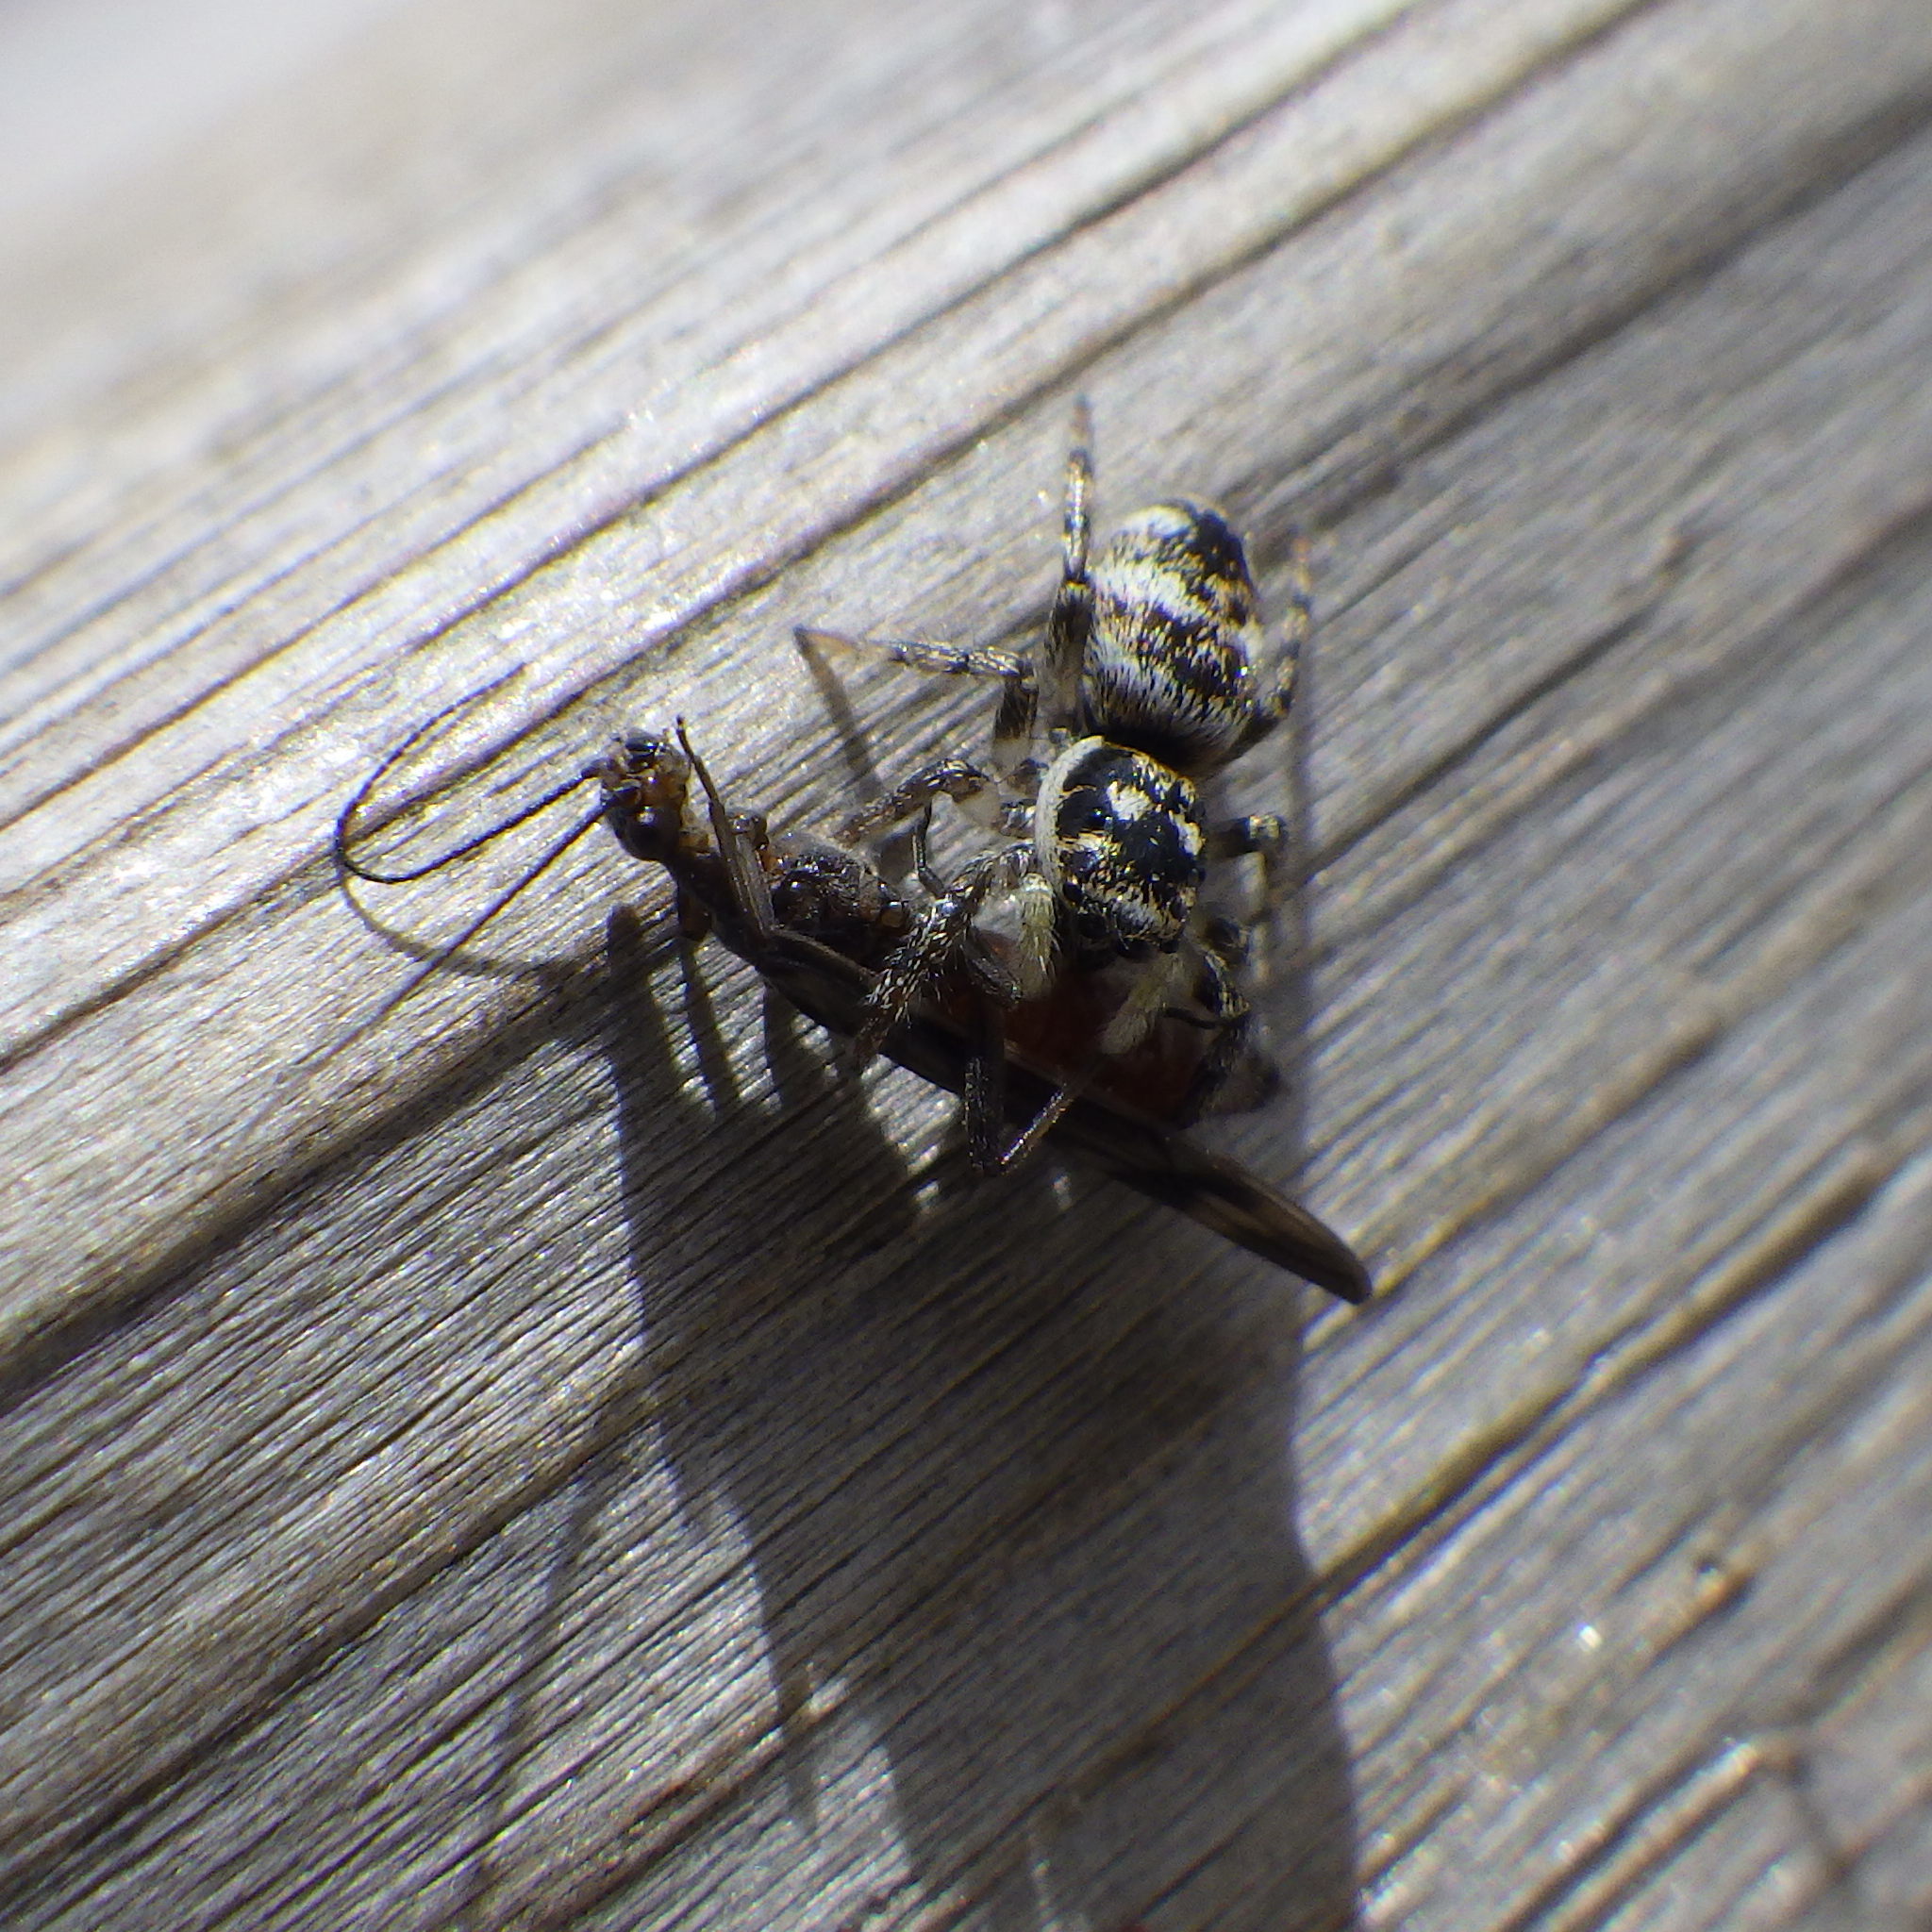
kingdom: Animalia
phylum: Arthropoda
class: Arachnida
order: Araneae
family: Salticidae
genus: Salticus
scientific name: Salticus scenicus
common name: Zebra jumper
